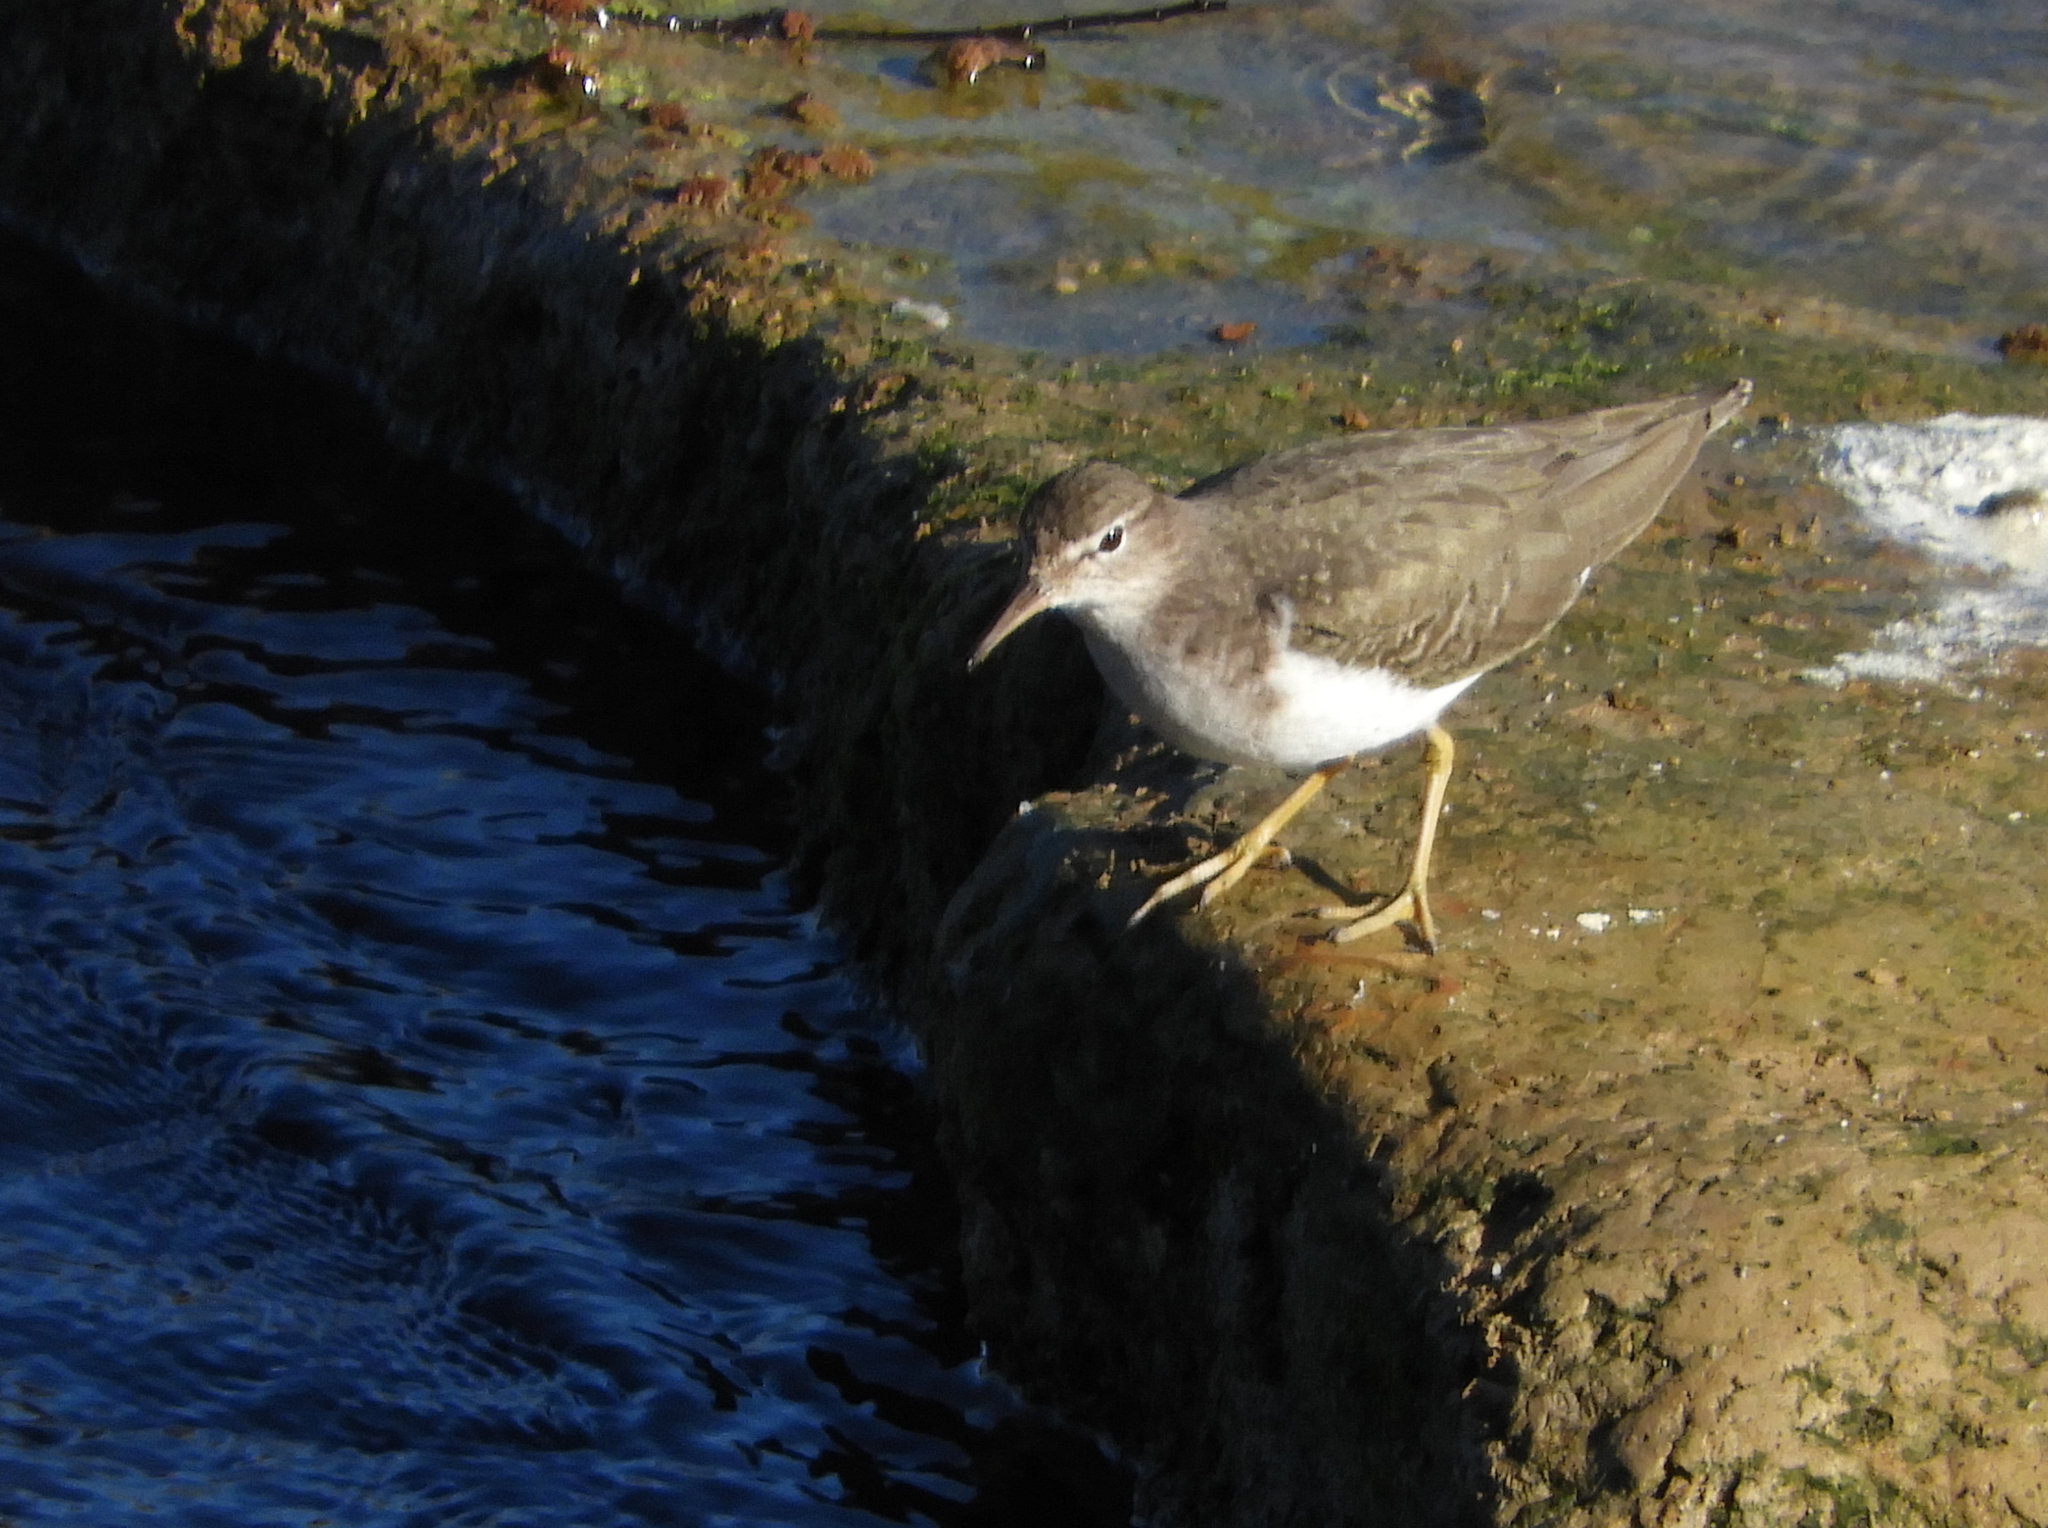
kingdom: Animalia
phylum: Chordata
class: Aves
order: Charadriiformes
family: Scolopacidae
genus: Actitis
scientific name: Actitis macularius
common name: Spotted sandpiper
